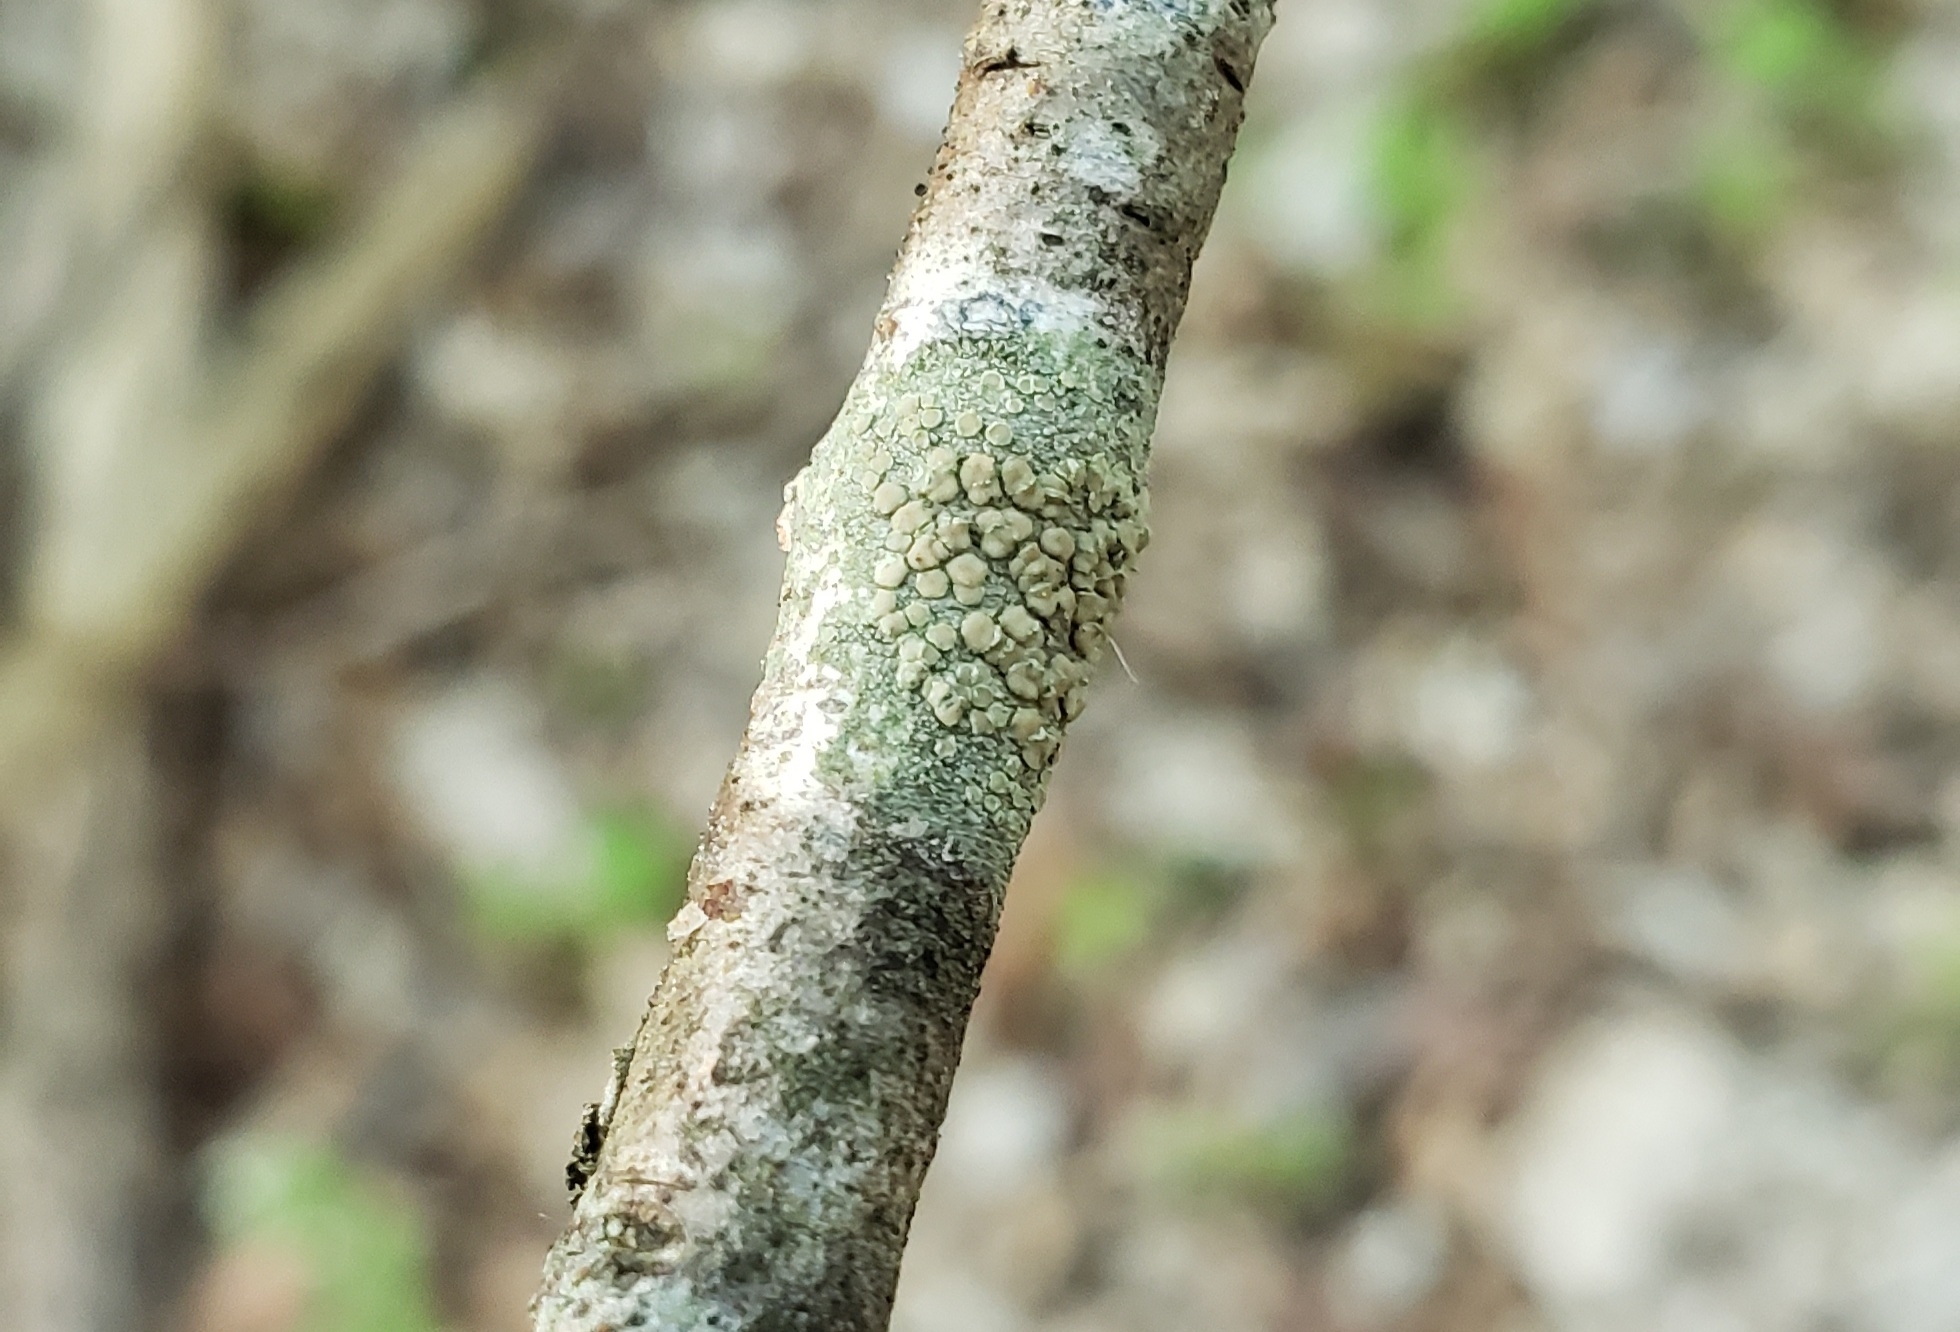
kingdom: Fungi
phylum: Ascomycota
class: Lecanoromycetes
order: Lecanorales
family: Lecanoraceae
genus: Lecanora
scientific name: Lecanora strobilina
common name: Mealy rim-lichen
